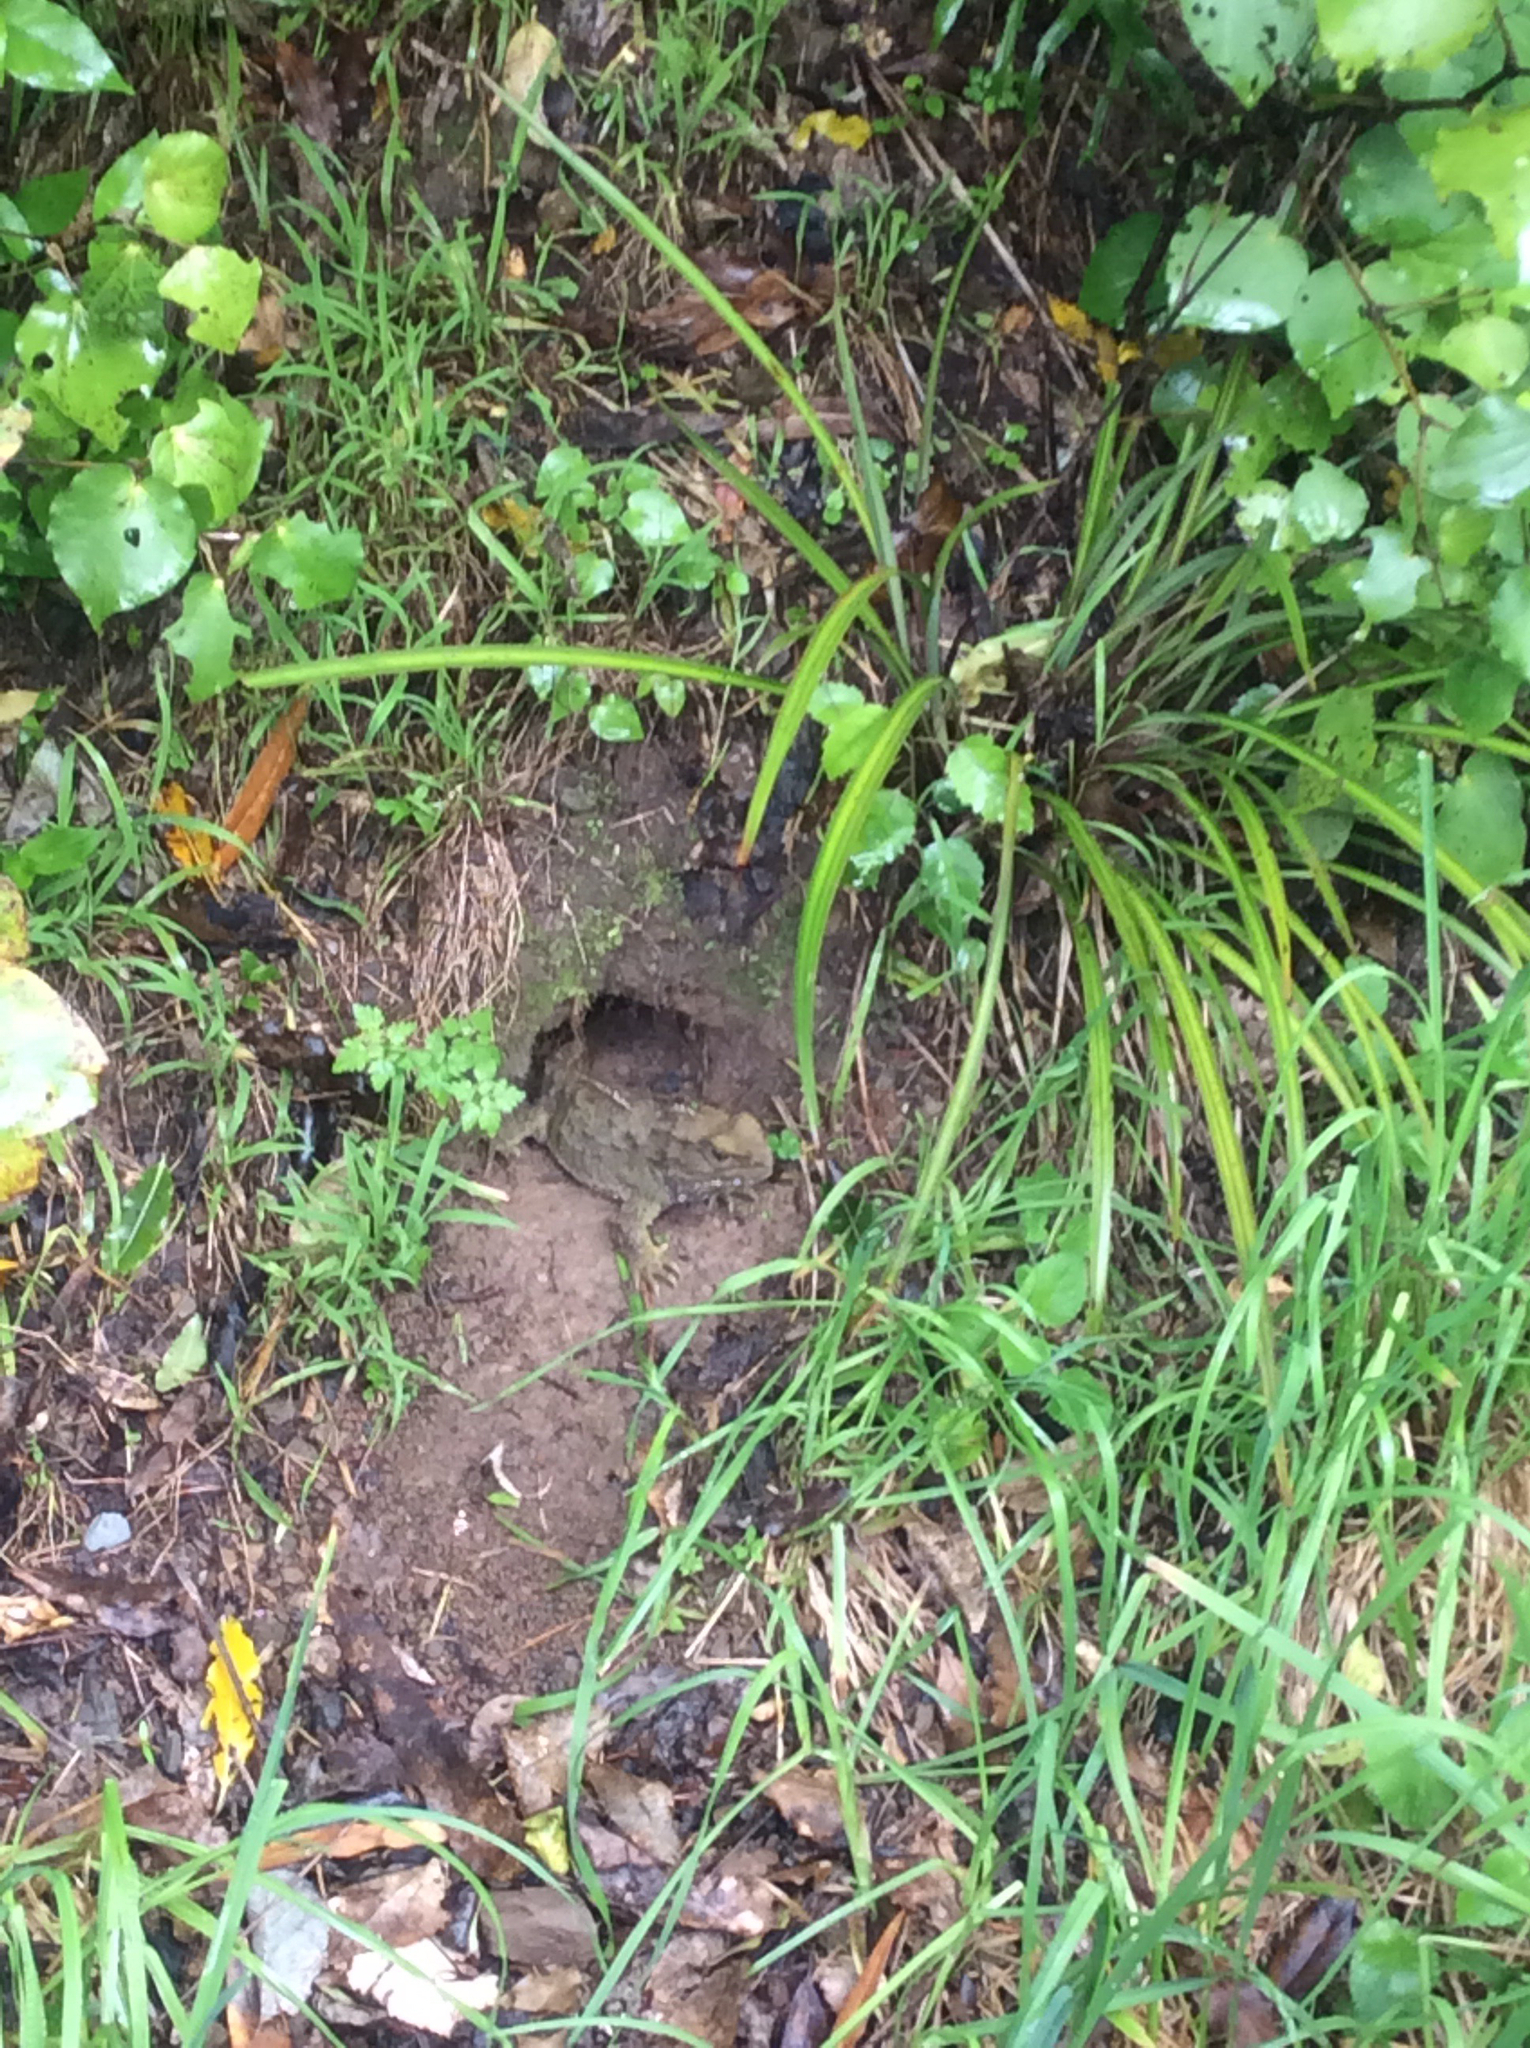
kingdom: Animalia
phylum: Chordata
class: Sphenodontia
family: Sphenodontidae
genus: Sphenodon
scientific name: Sphenodon punctatus
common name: Tuatara
